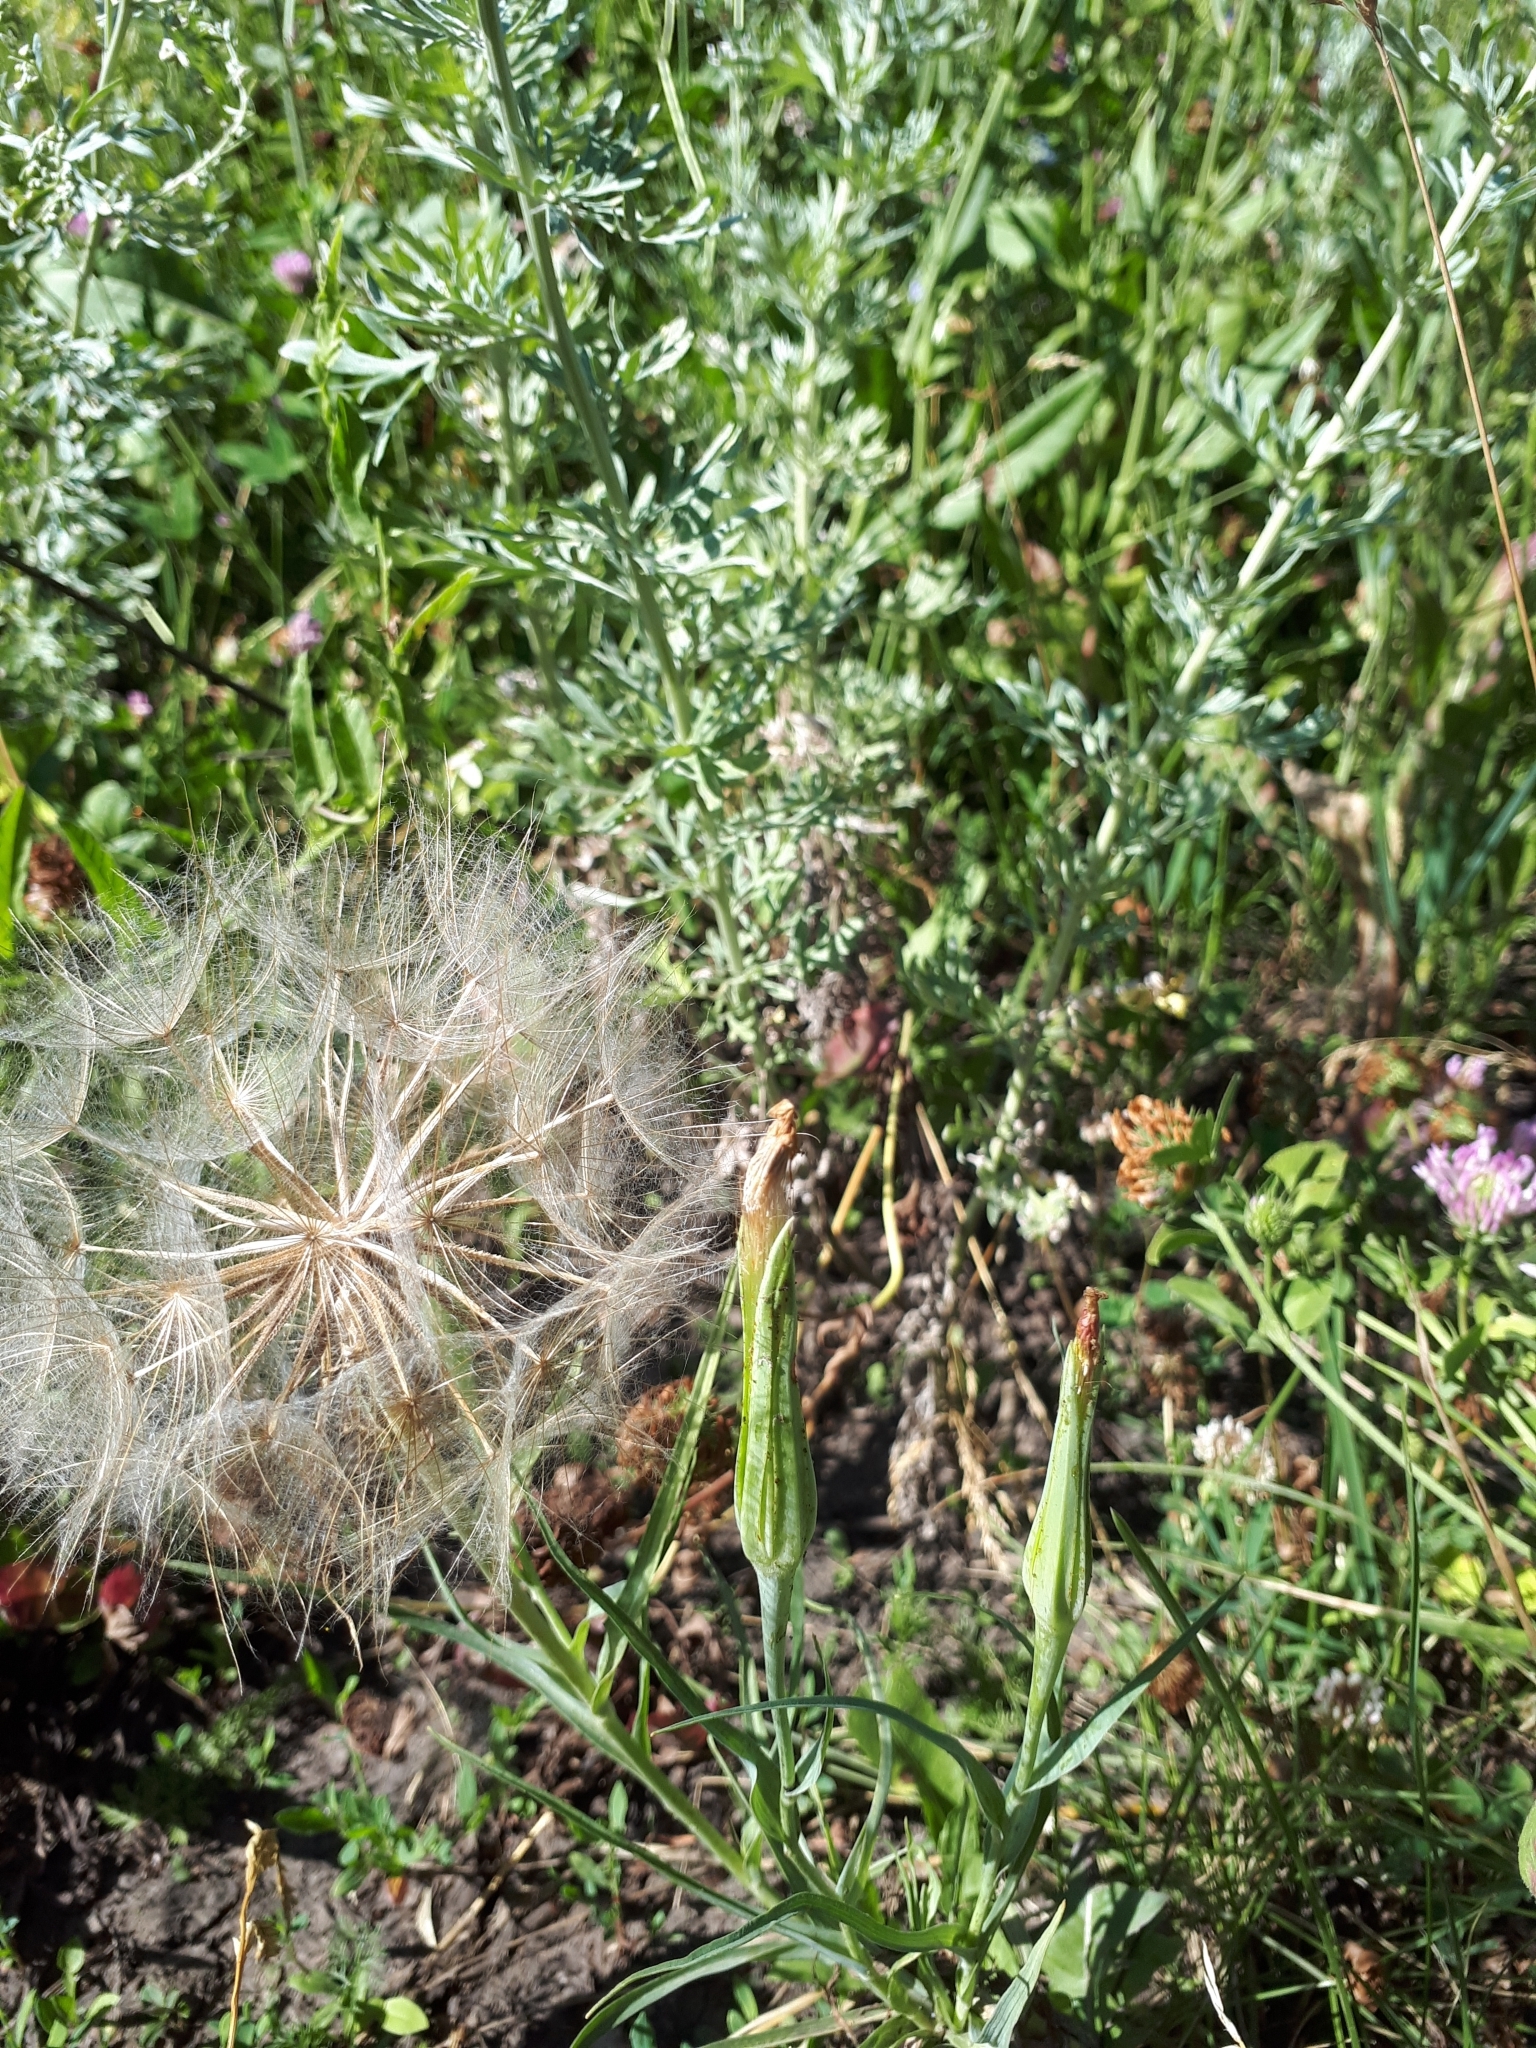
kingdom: Plantae
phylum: Tracheophyta
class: Magnoliopsida
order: Asterales
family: Asteraceae
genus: Tragopogon
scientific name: Tragopogon dubius
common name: Yellow salsify
